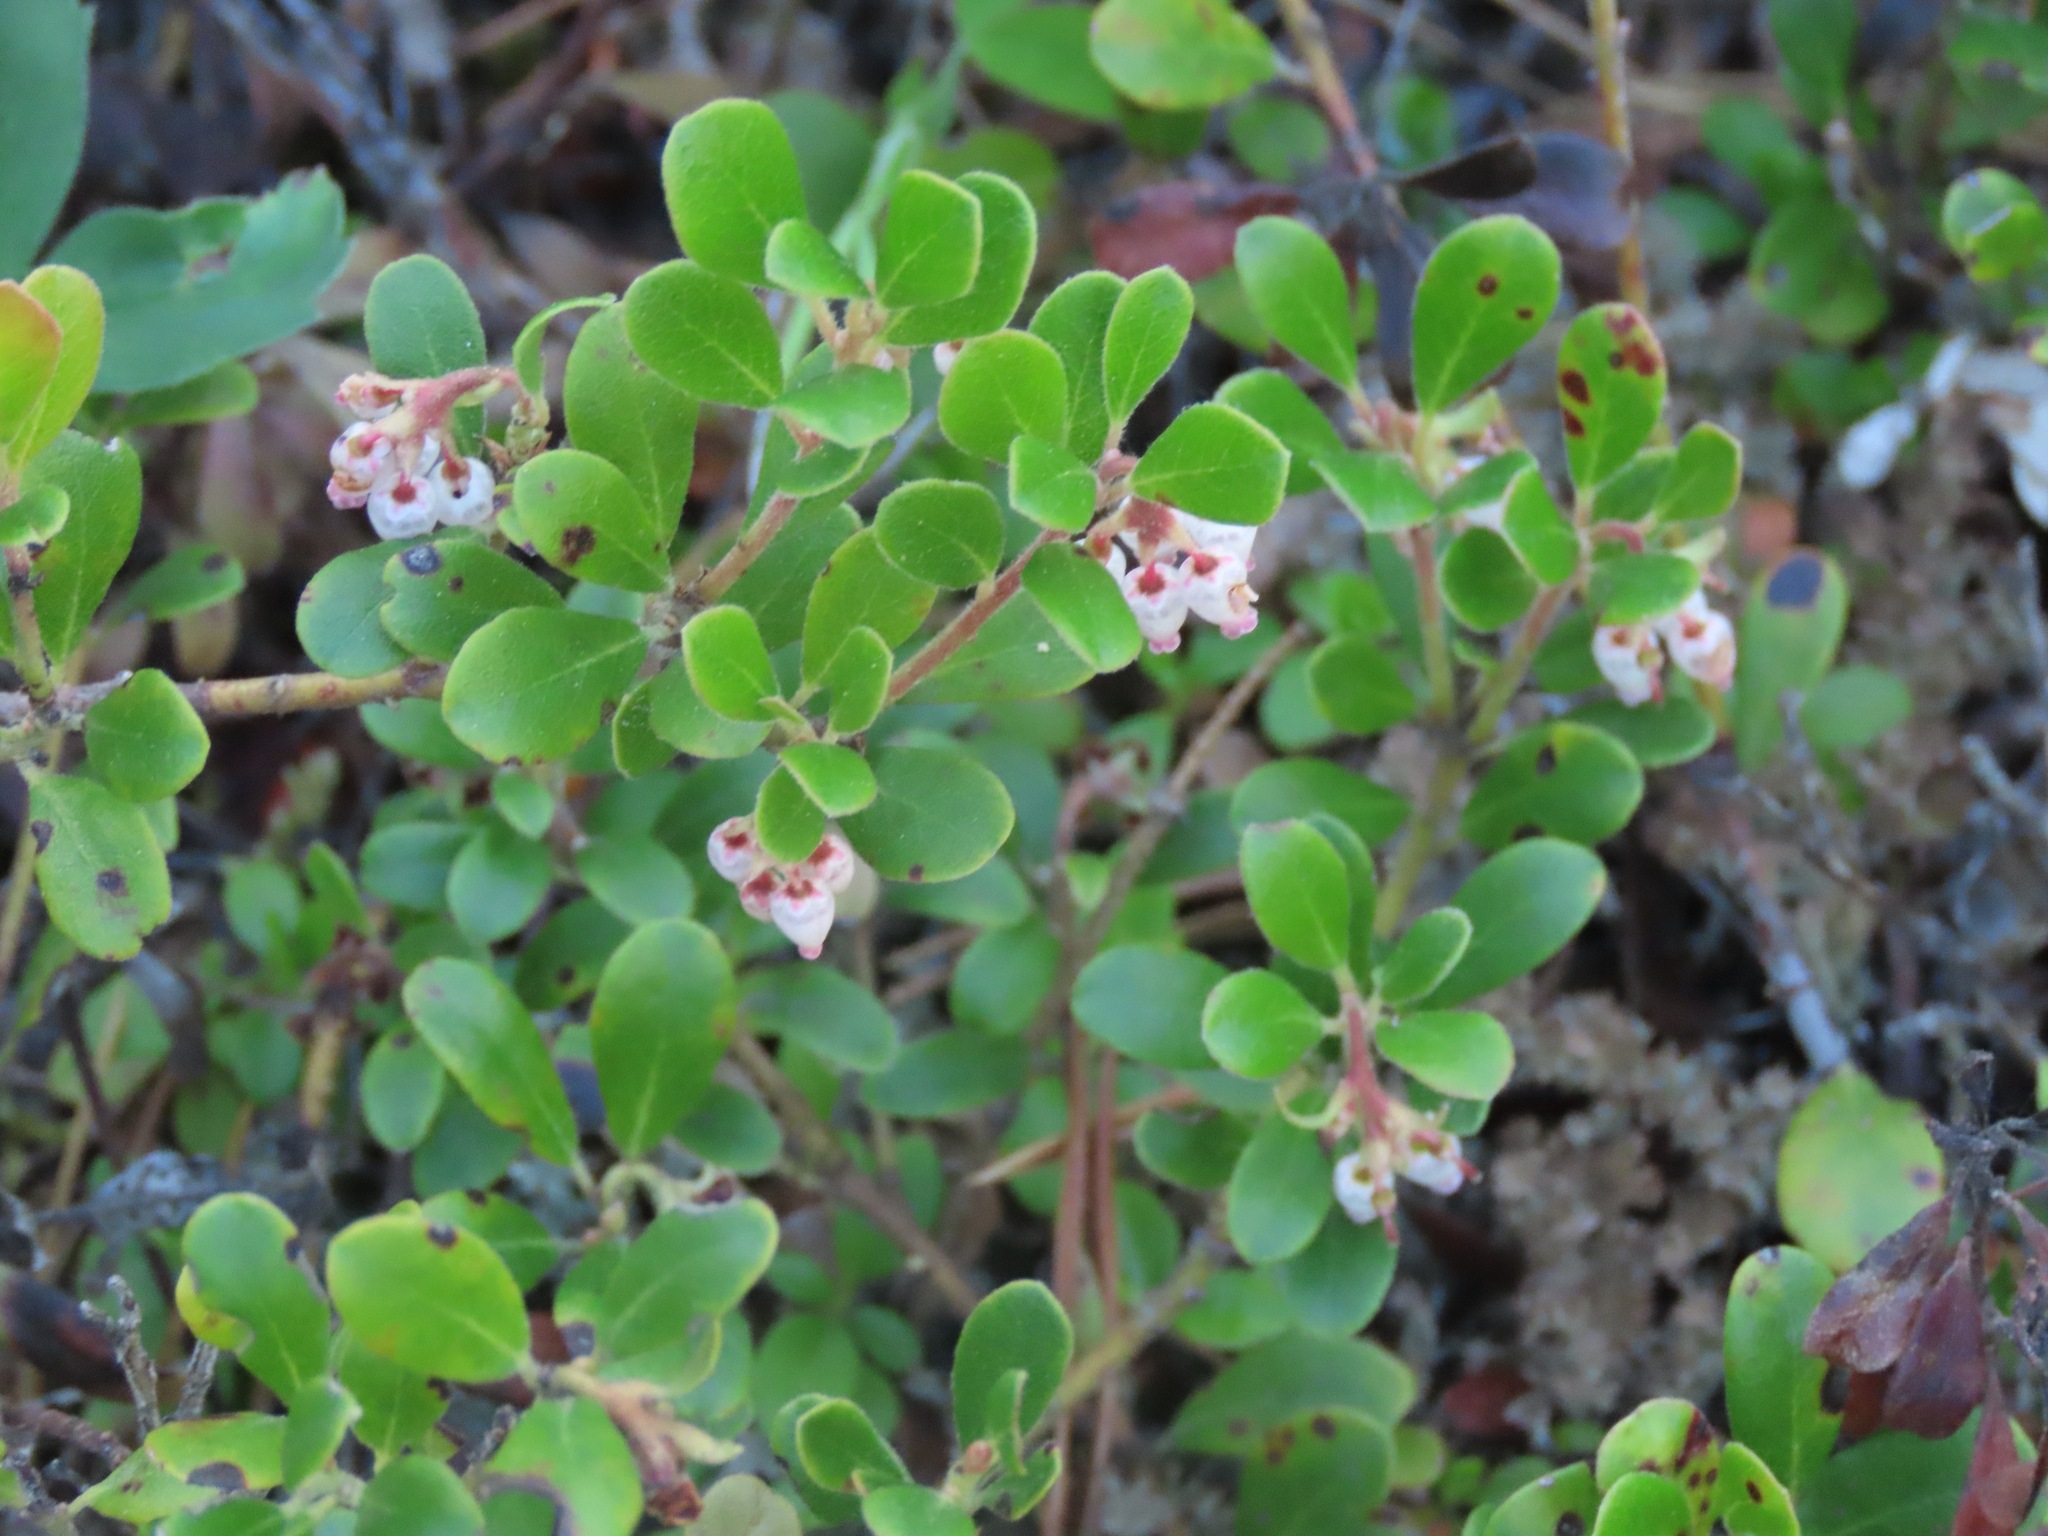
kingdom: Plantae
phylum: Tracheophyta
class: Magnoliopsida
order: Ericales
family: Ericaceae
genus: Arctostaphylos
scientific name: Arctostaphylos uva-ursi
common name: Bearberry
